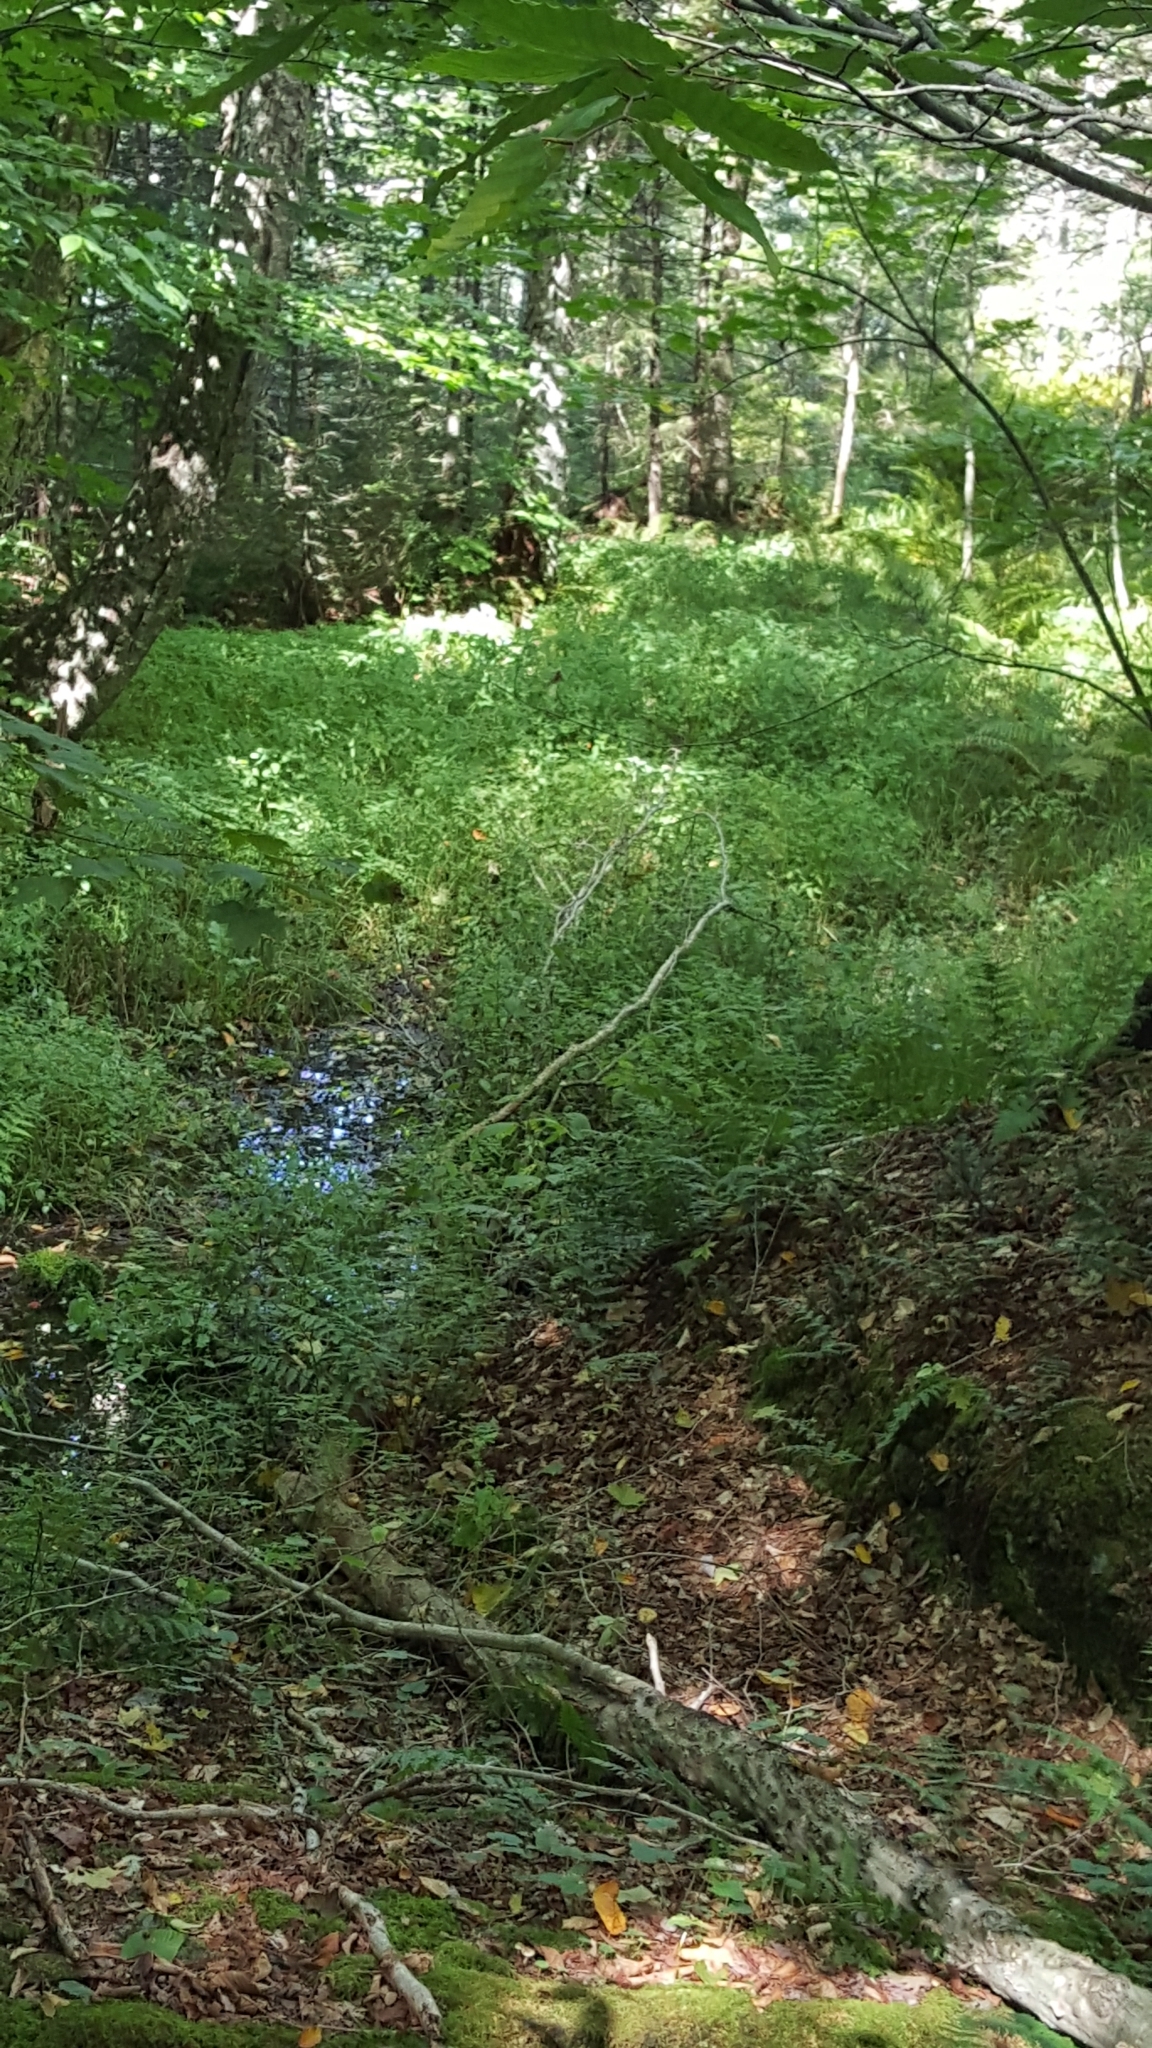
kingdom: Plantae
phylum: Tracheophyta
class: Magnoliopsida
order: Ericales
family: Balsaminaceae
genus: Impatiens
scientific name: Impatiens capensis
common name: Orange balsam
